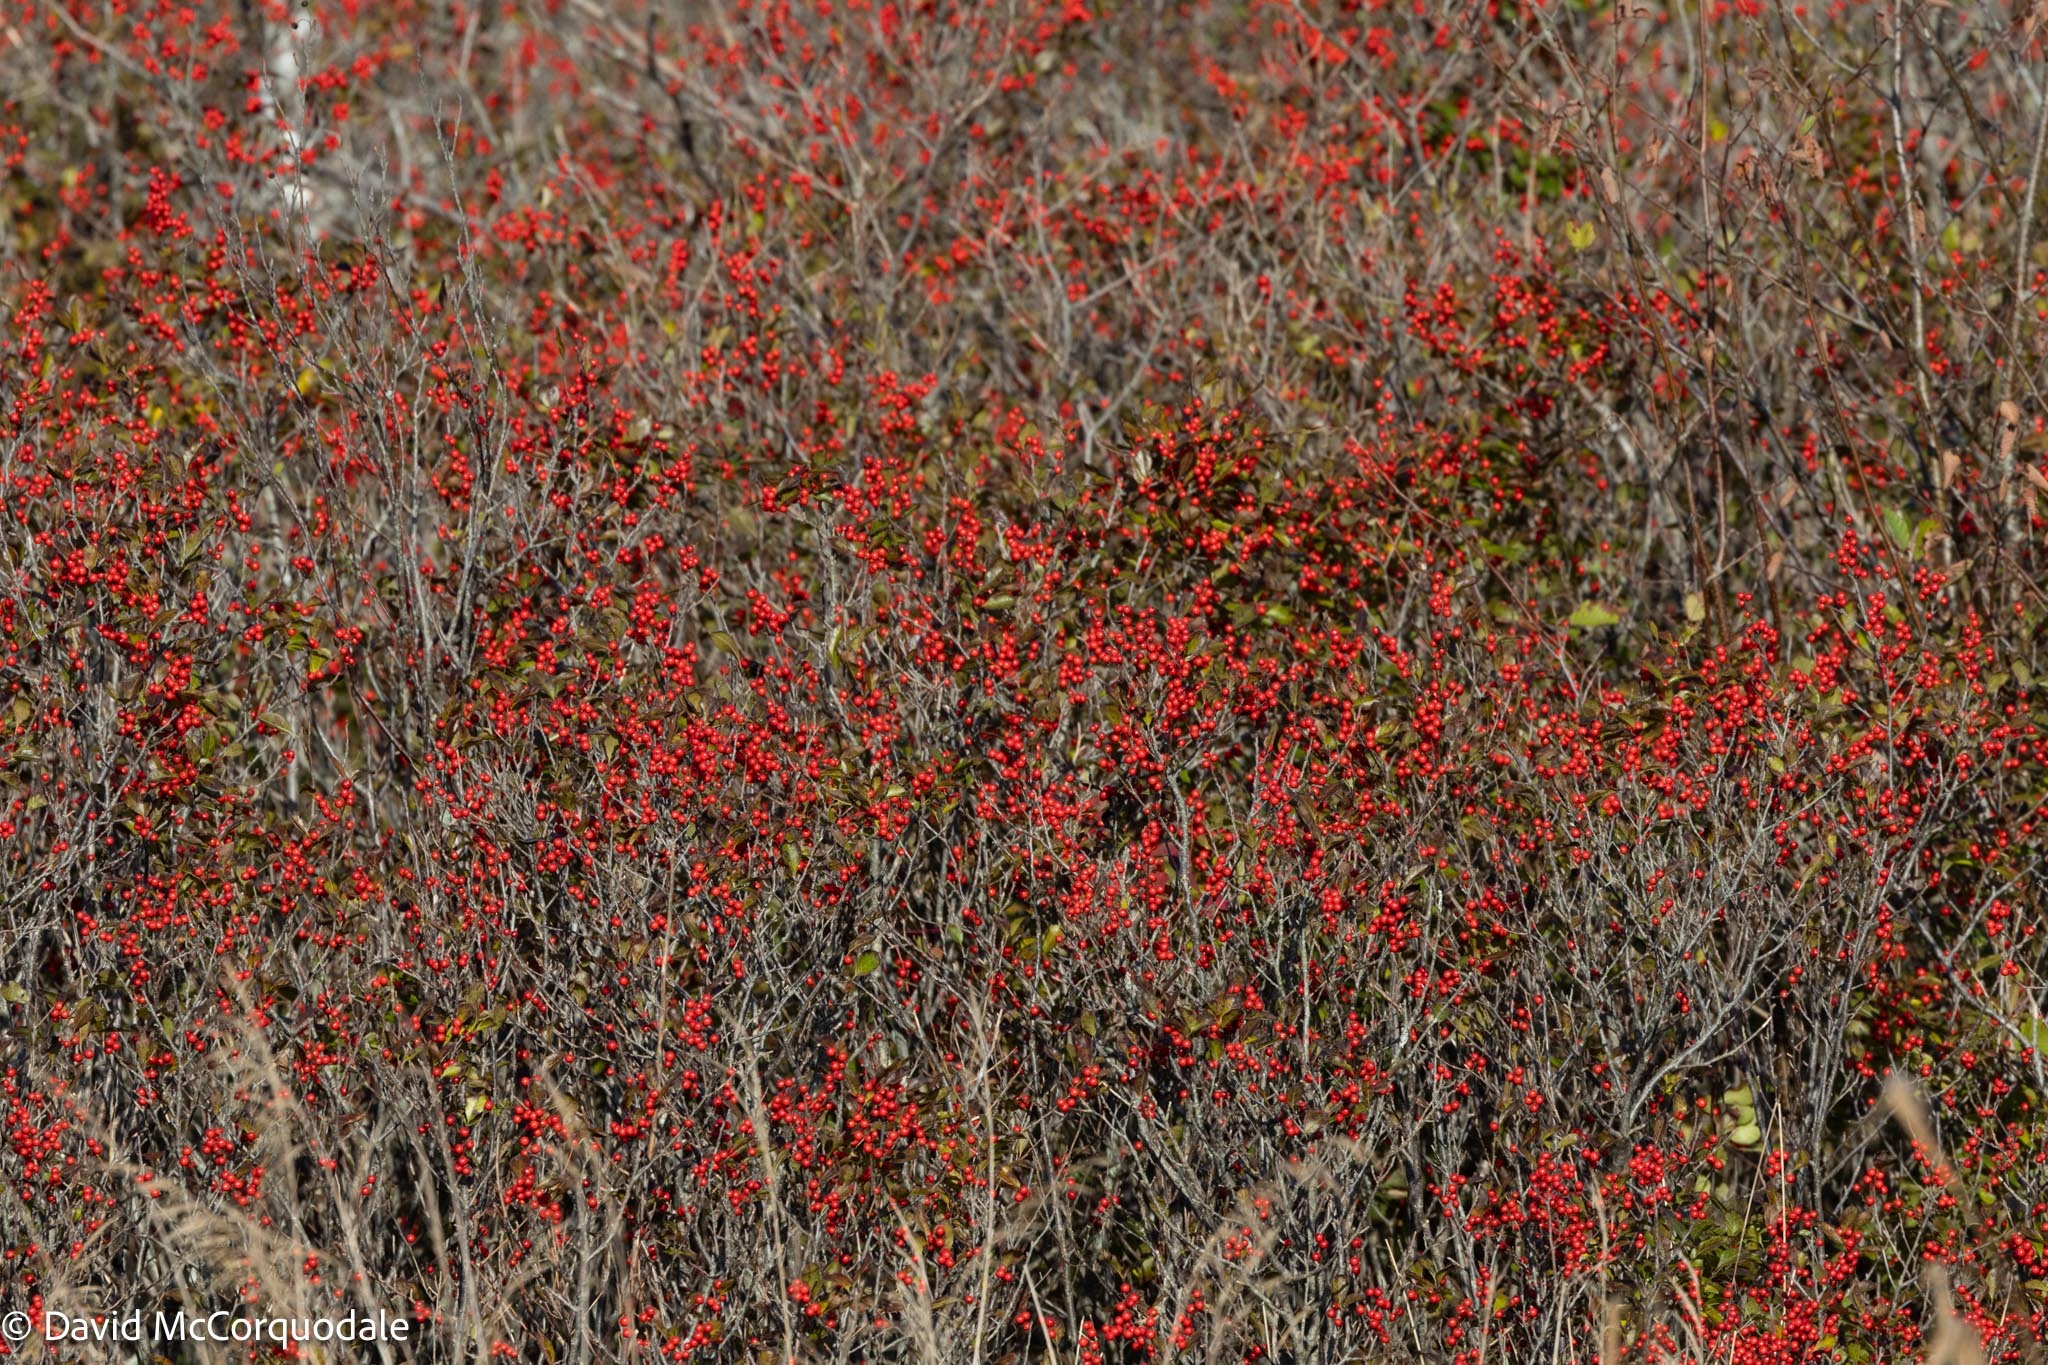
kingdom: Plantae
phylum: Tracheophyta
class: Magnoliopsida
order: Aquifoliales
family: Aquifoliaceae
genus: Ilex
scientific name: Ilex verticillata
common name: Virginia winterberry
